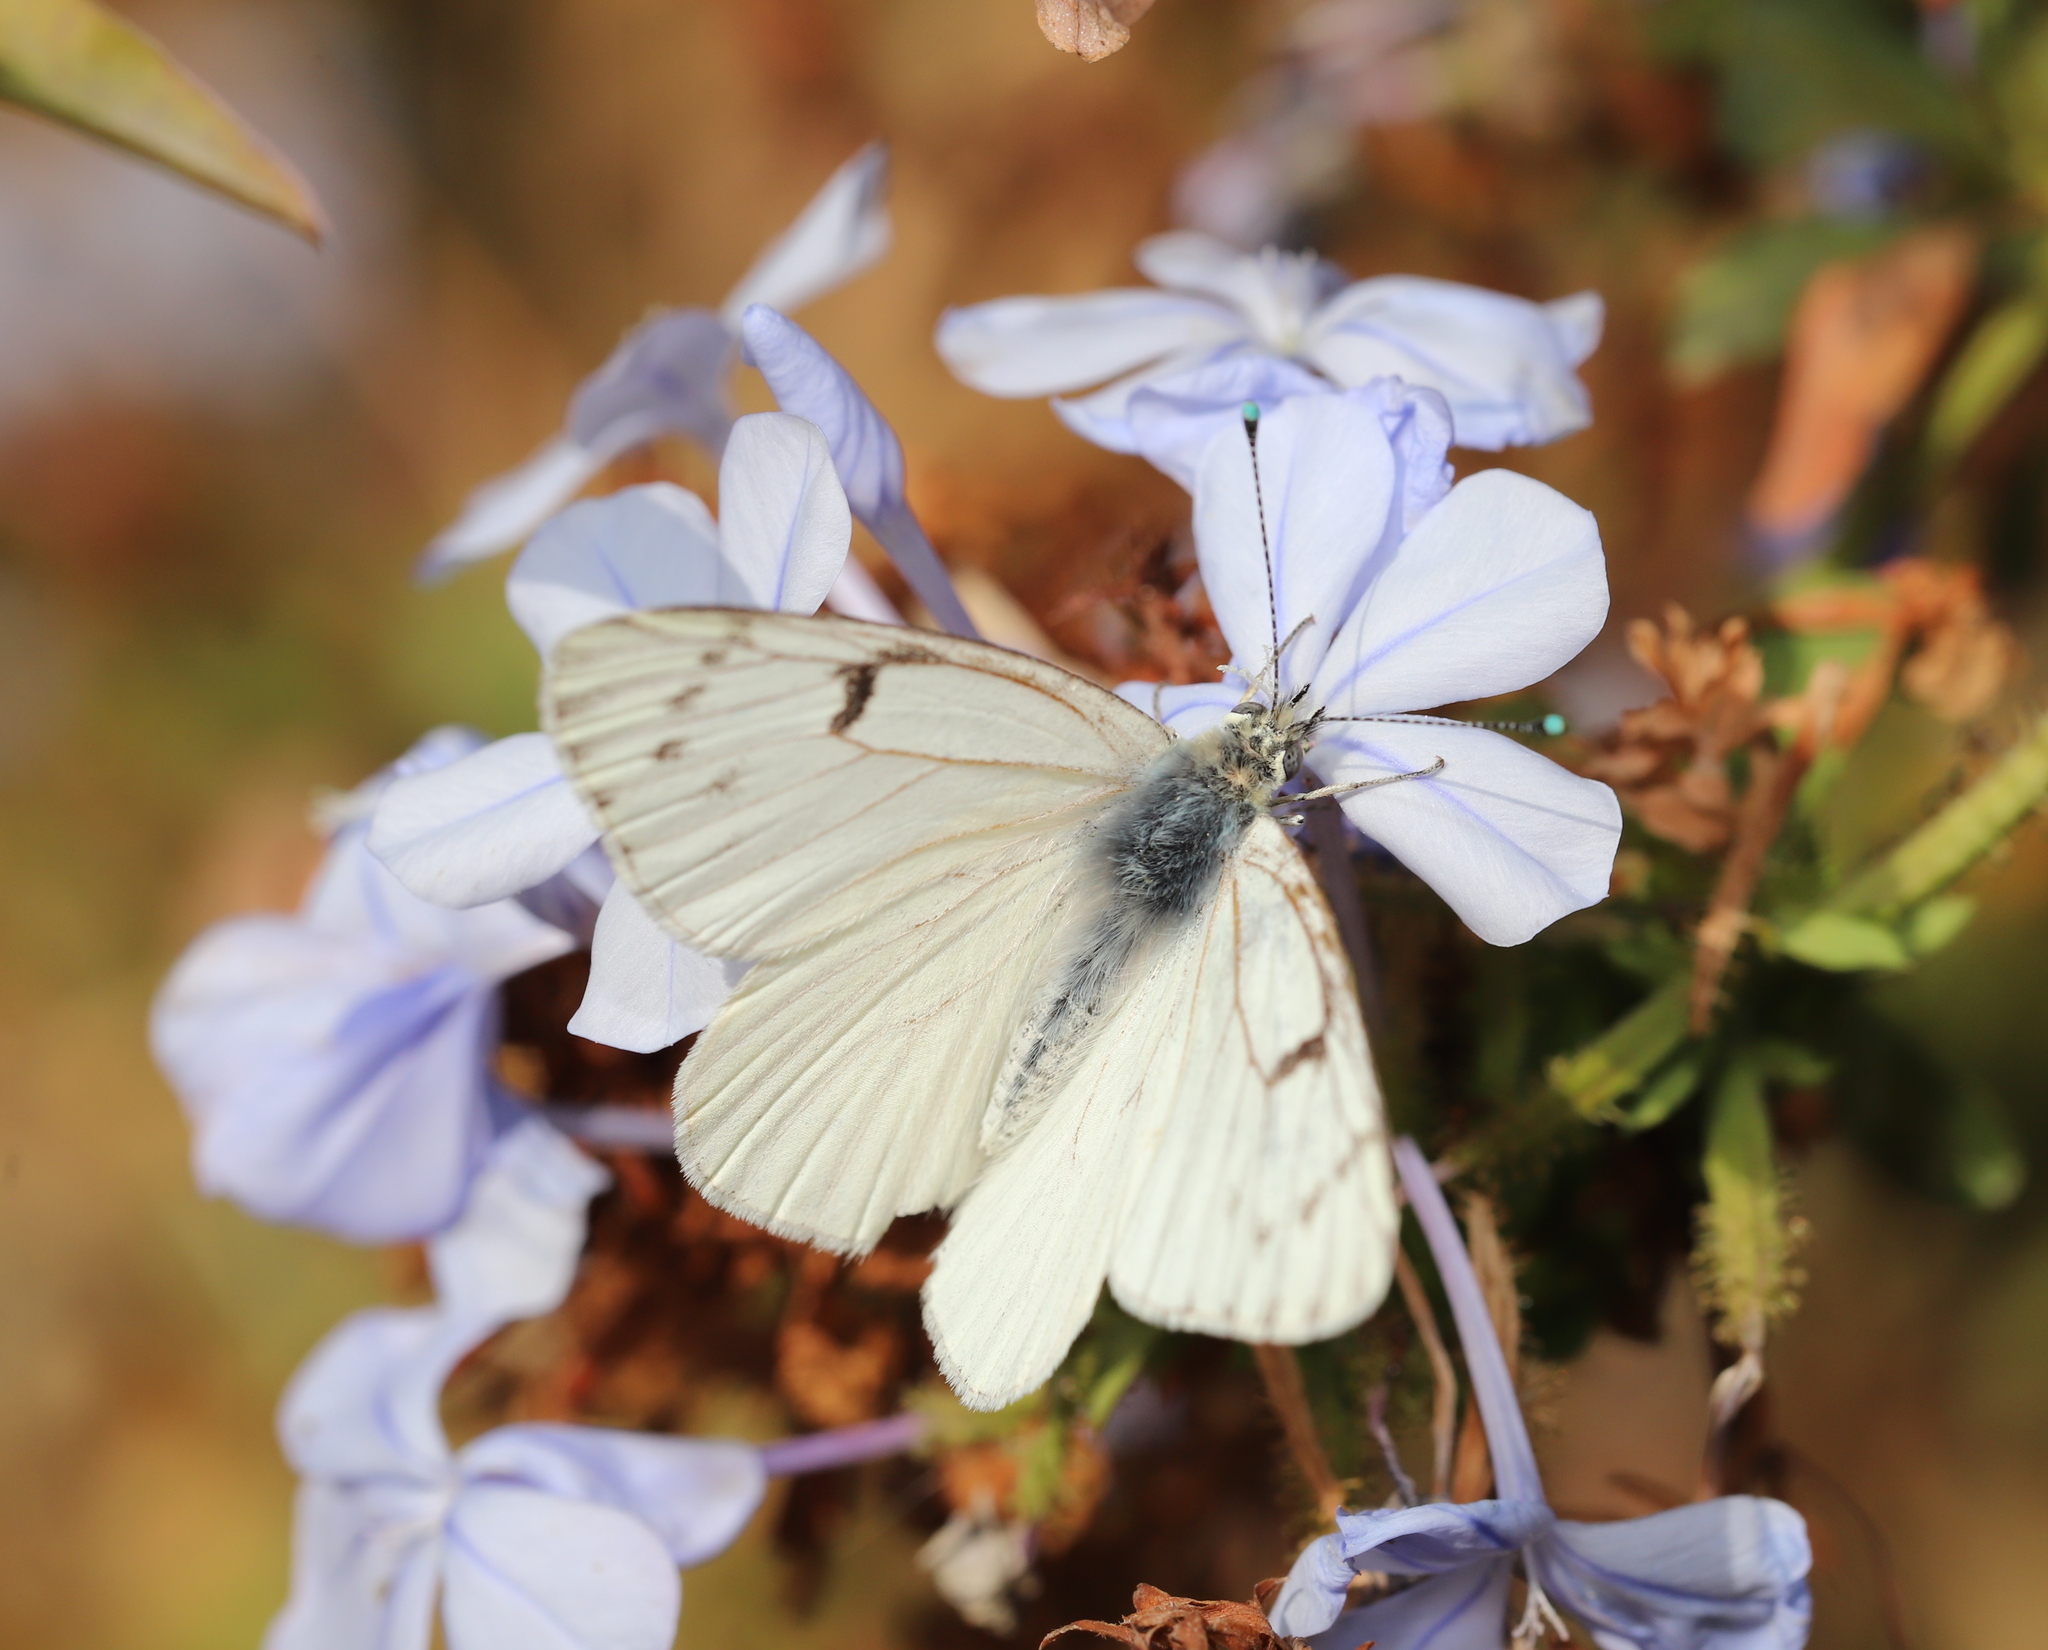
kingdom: Animalia
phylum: Arthropoda
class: Insecta
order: Lepidoptera
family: Pieridae
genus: Tatochila
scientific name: Tatochila mercedis
